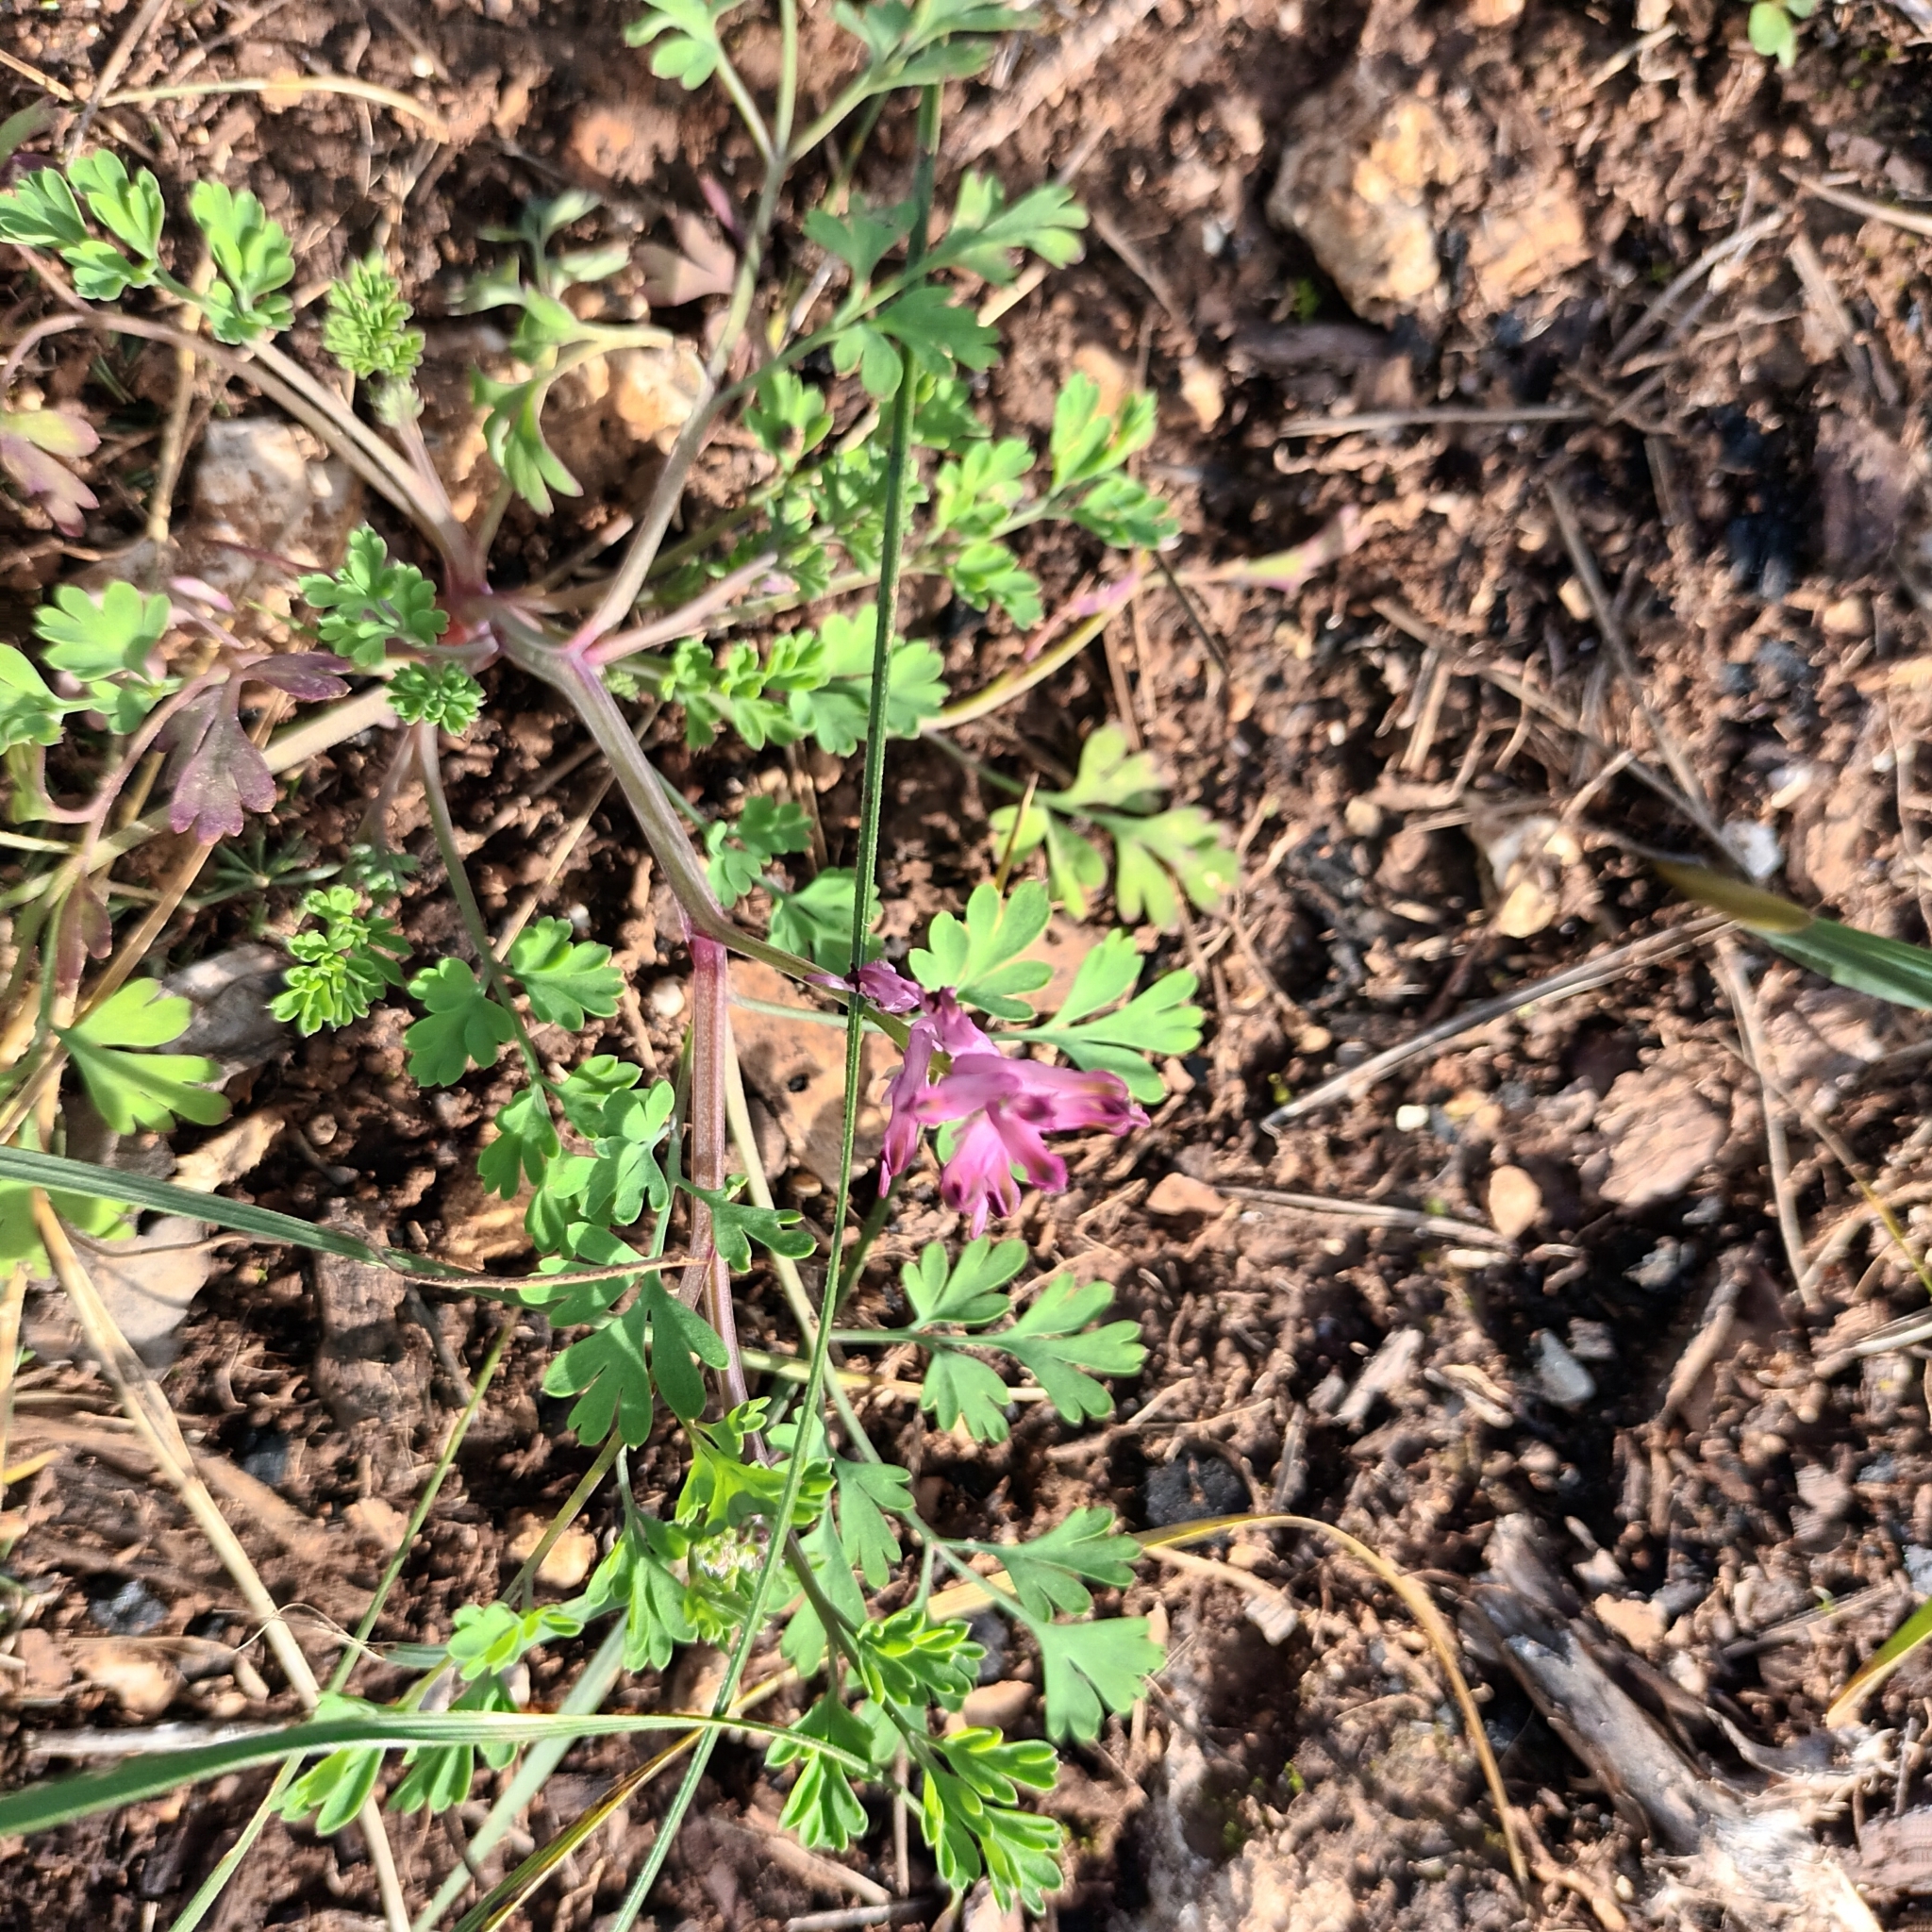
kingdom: Plantae
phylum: Tracheophyta
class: Magnoliopsida
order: Ranunculales
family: Papaveraceae
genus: Fumaria
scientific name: Fumaria officinalis
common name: Common fumitory
